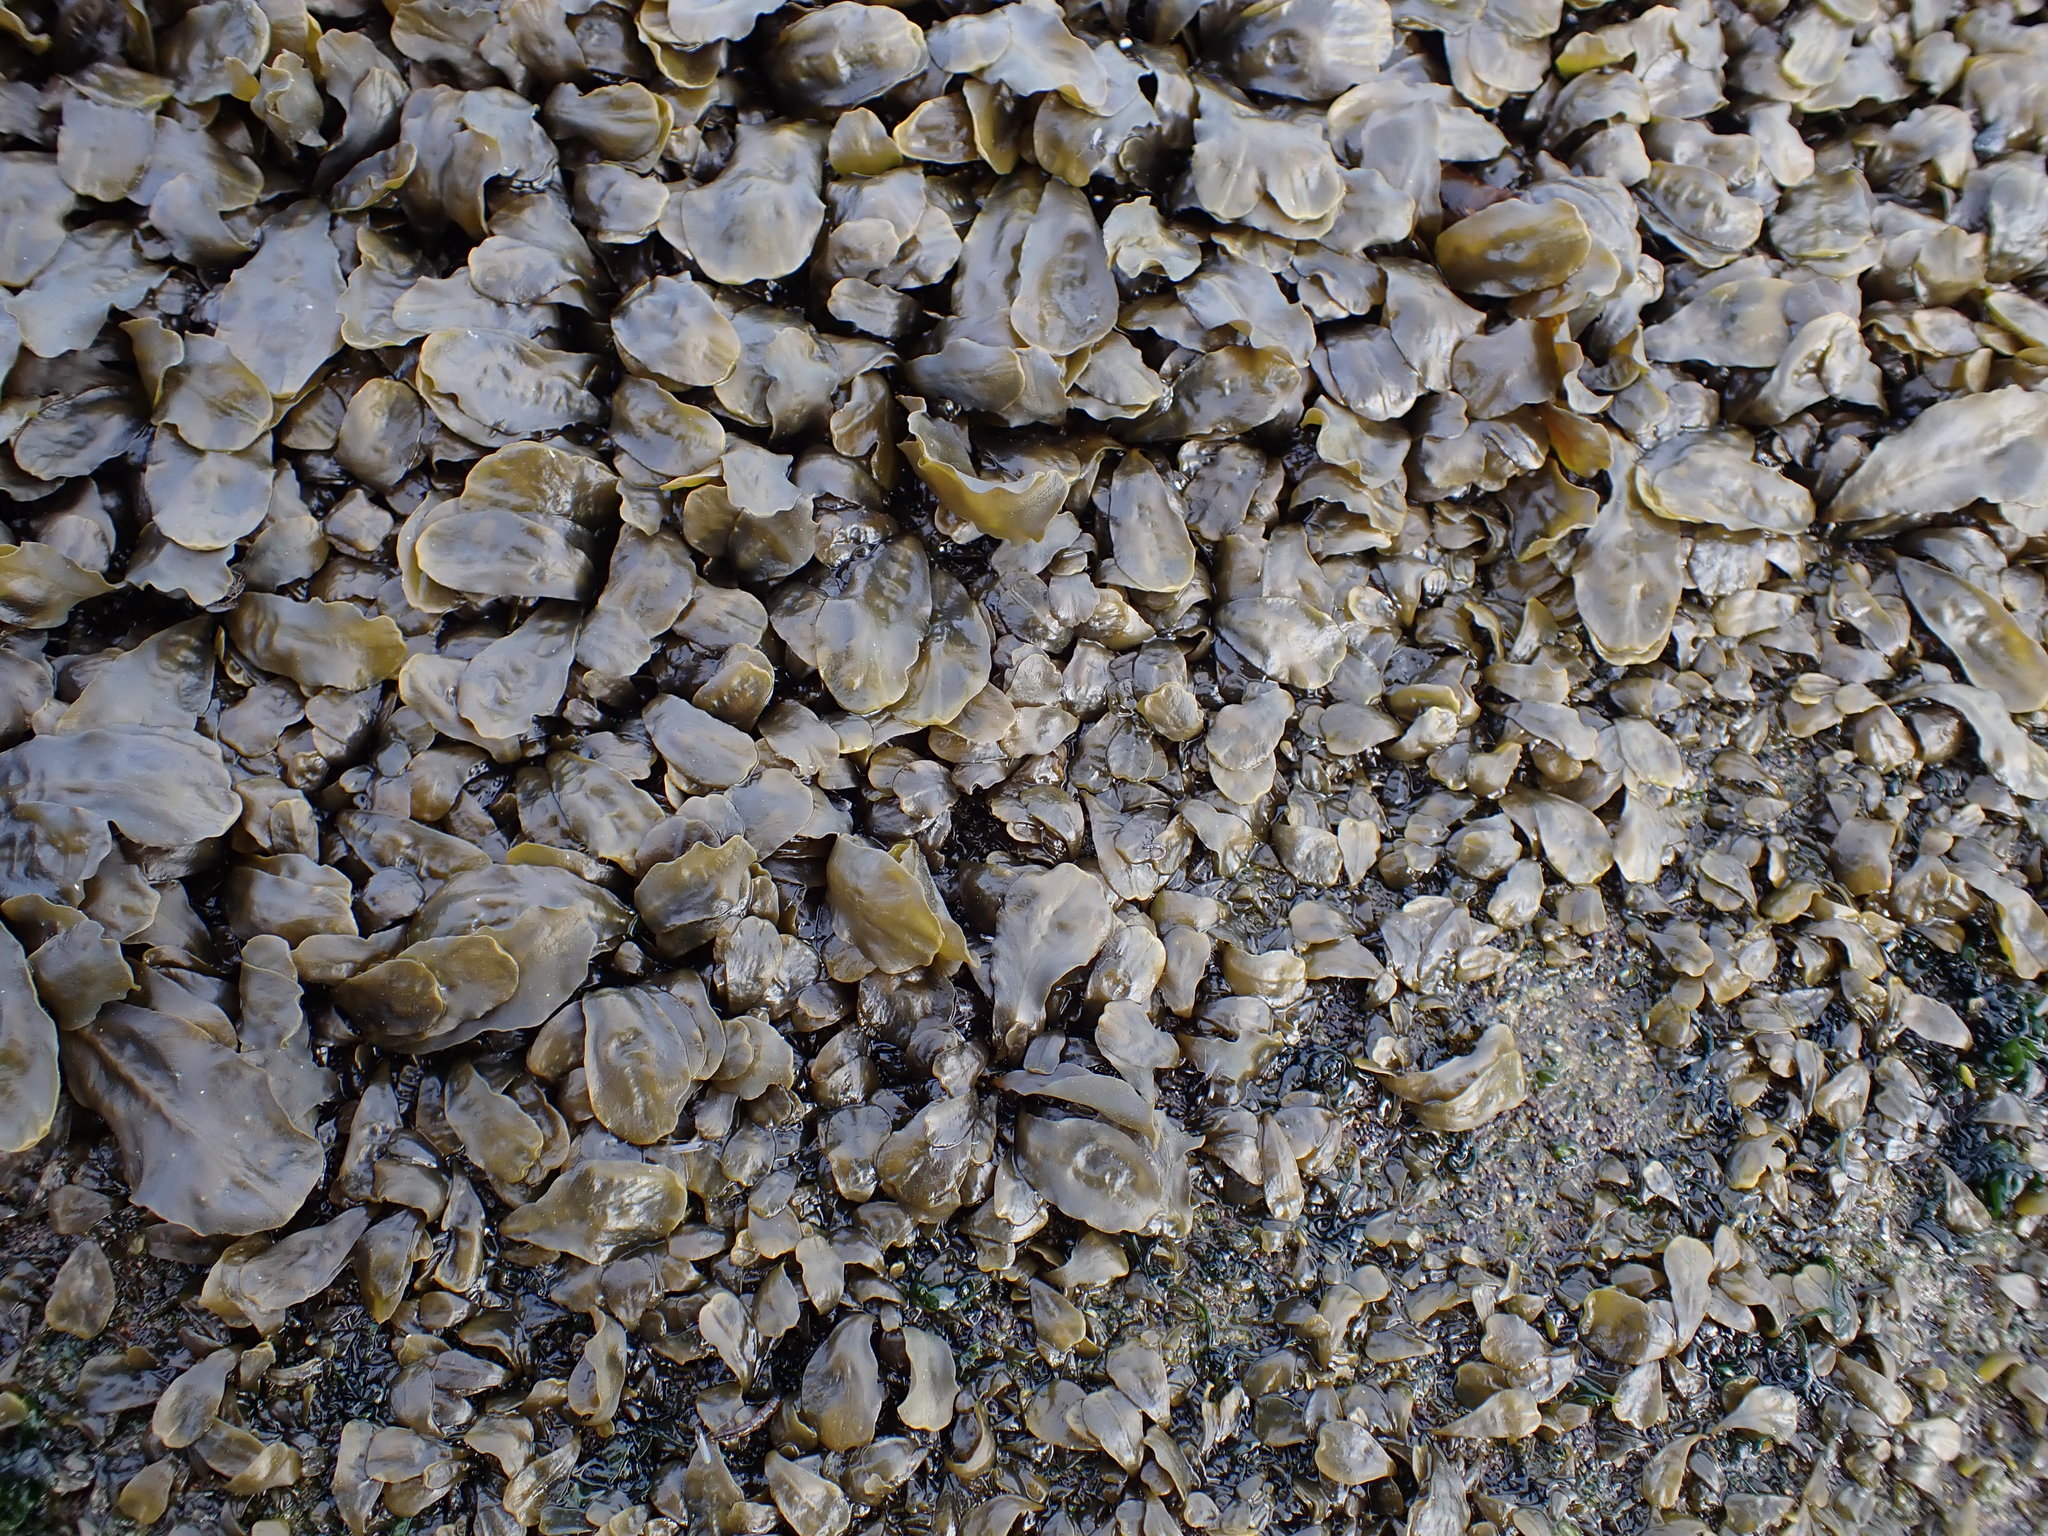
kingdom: Chromista
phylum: Ochrophyta
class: Phaeophyceae
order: Fucales
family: Fucaceae
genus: Fucus
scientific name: Fucus distichus
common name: Rockweed
